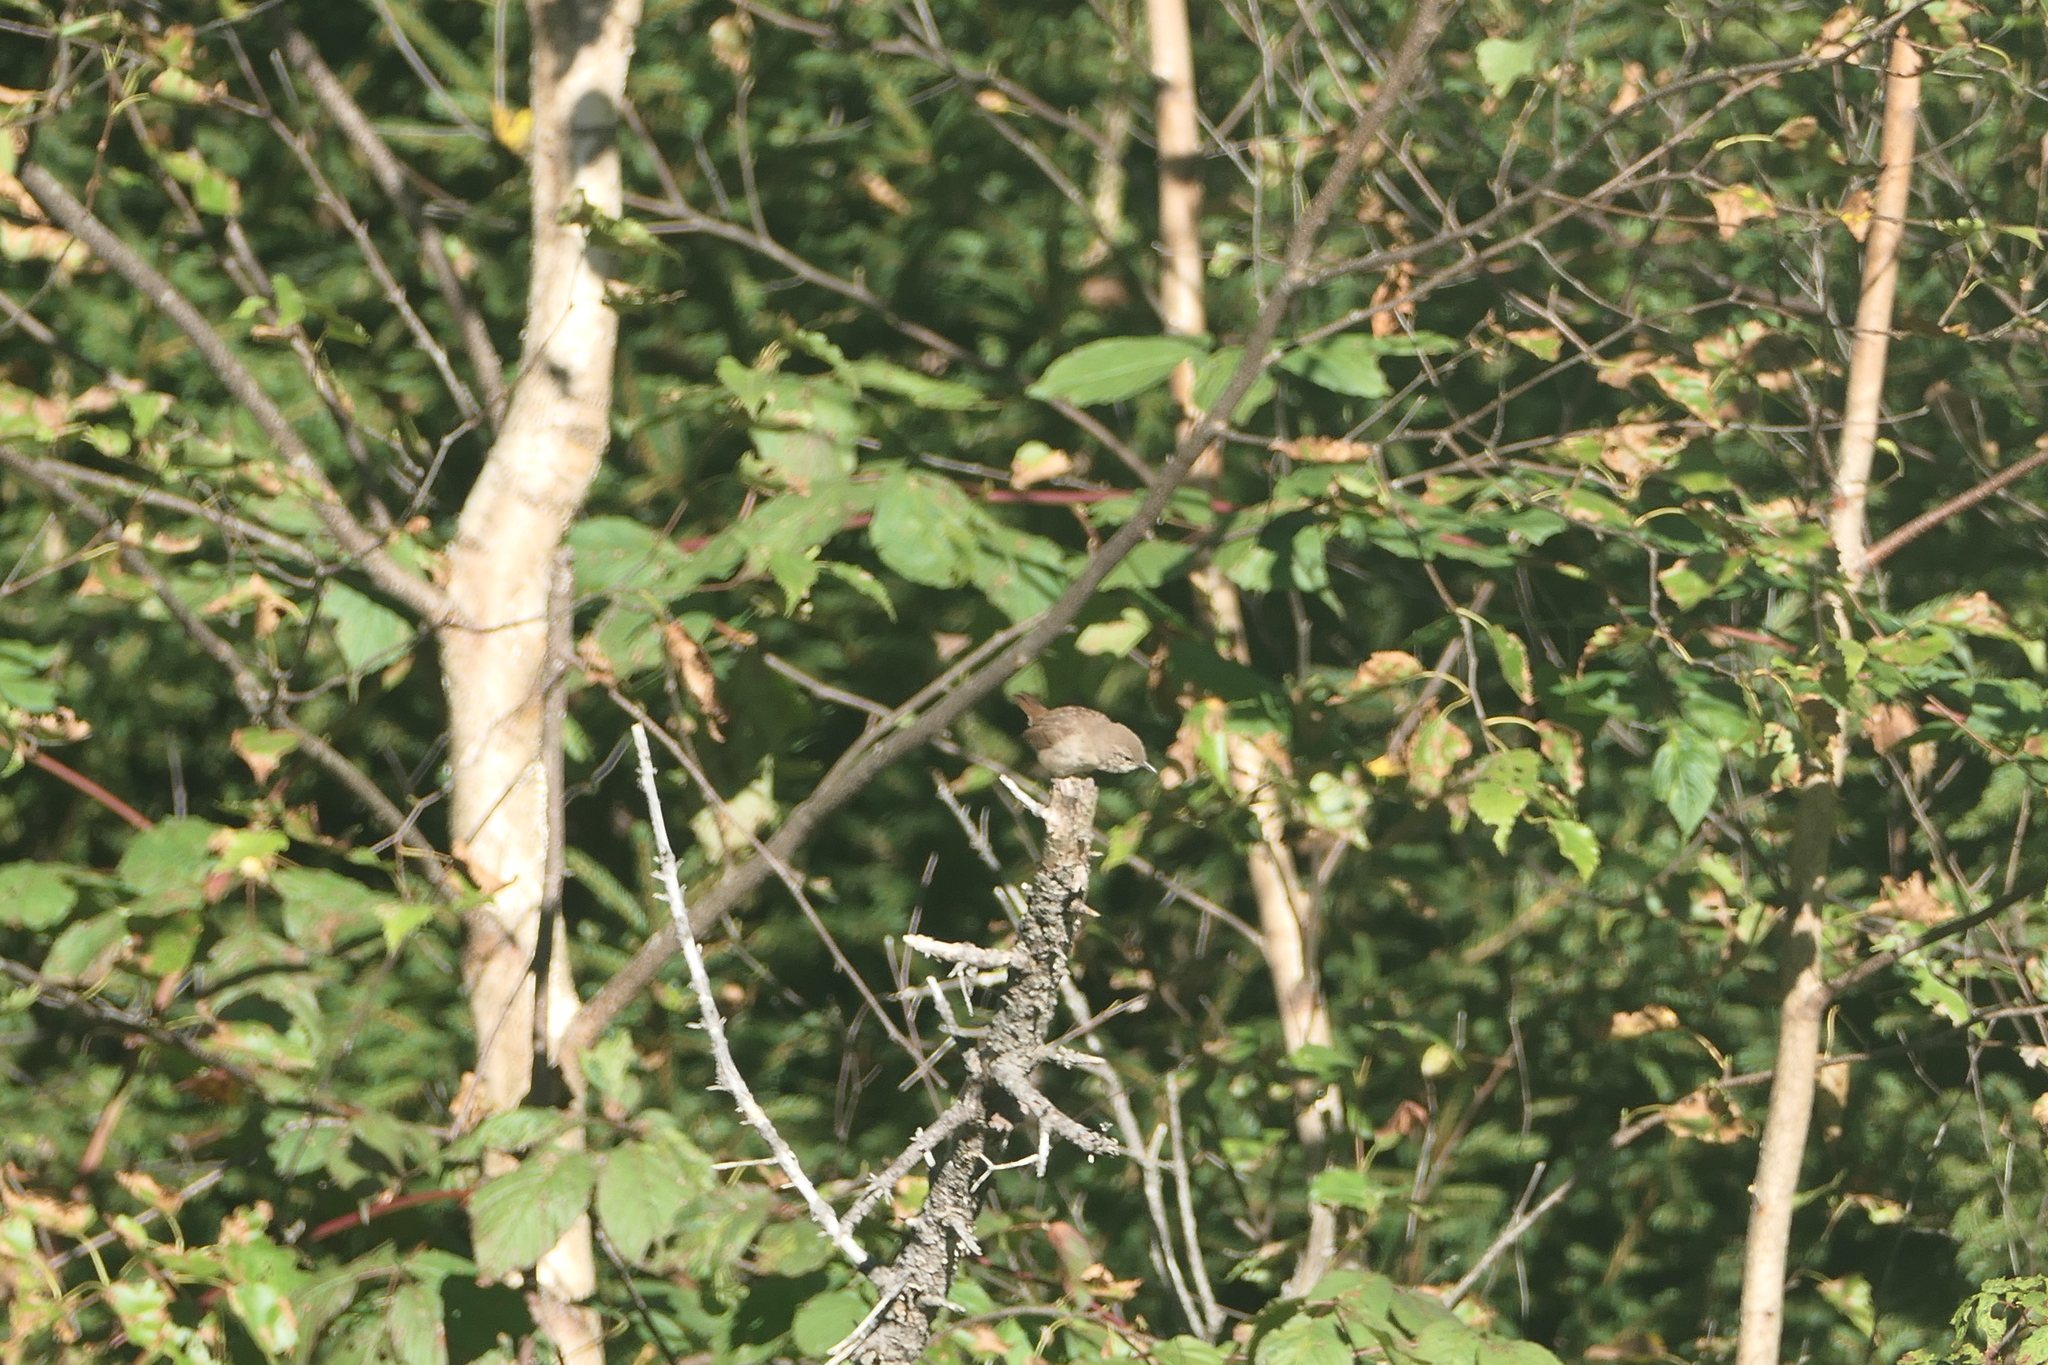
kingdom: Animalia
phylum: Chordata
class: Aves
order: Passeriformes
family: Troglodytidae
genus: Troglodytes
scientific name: Troglodytes aedon
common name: House wren
